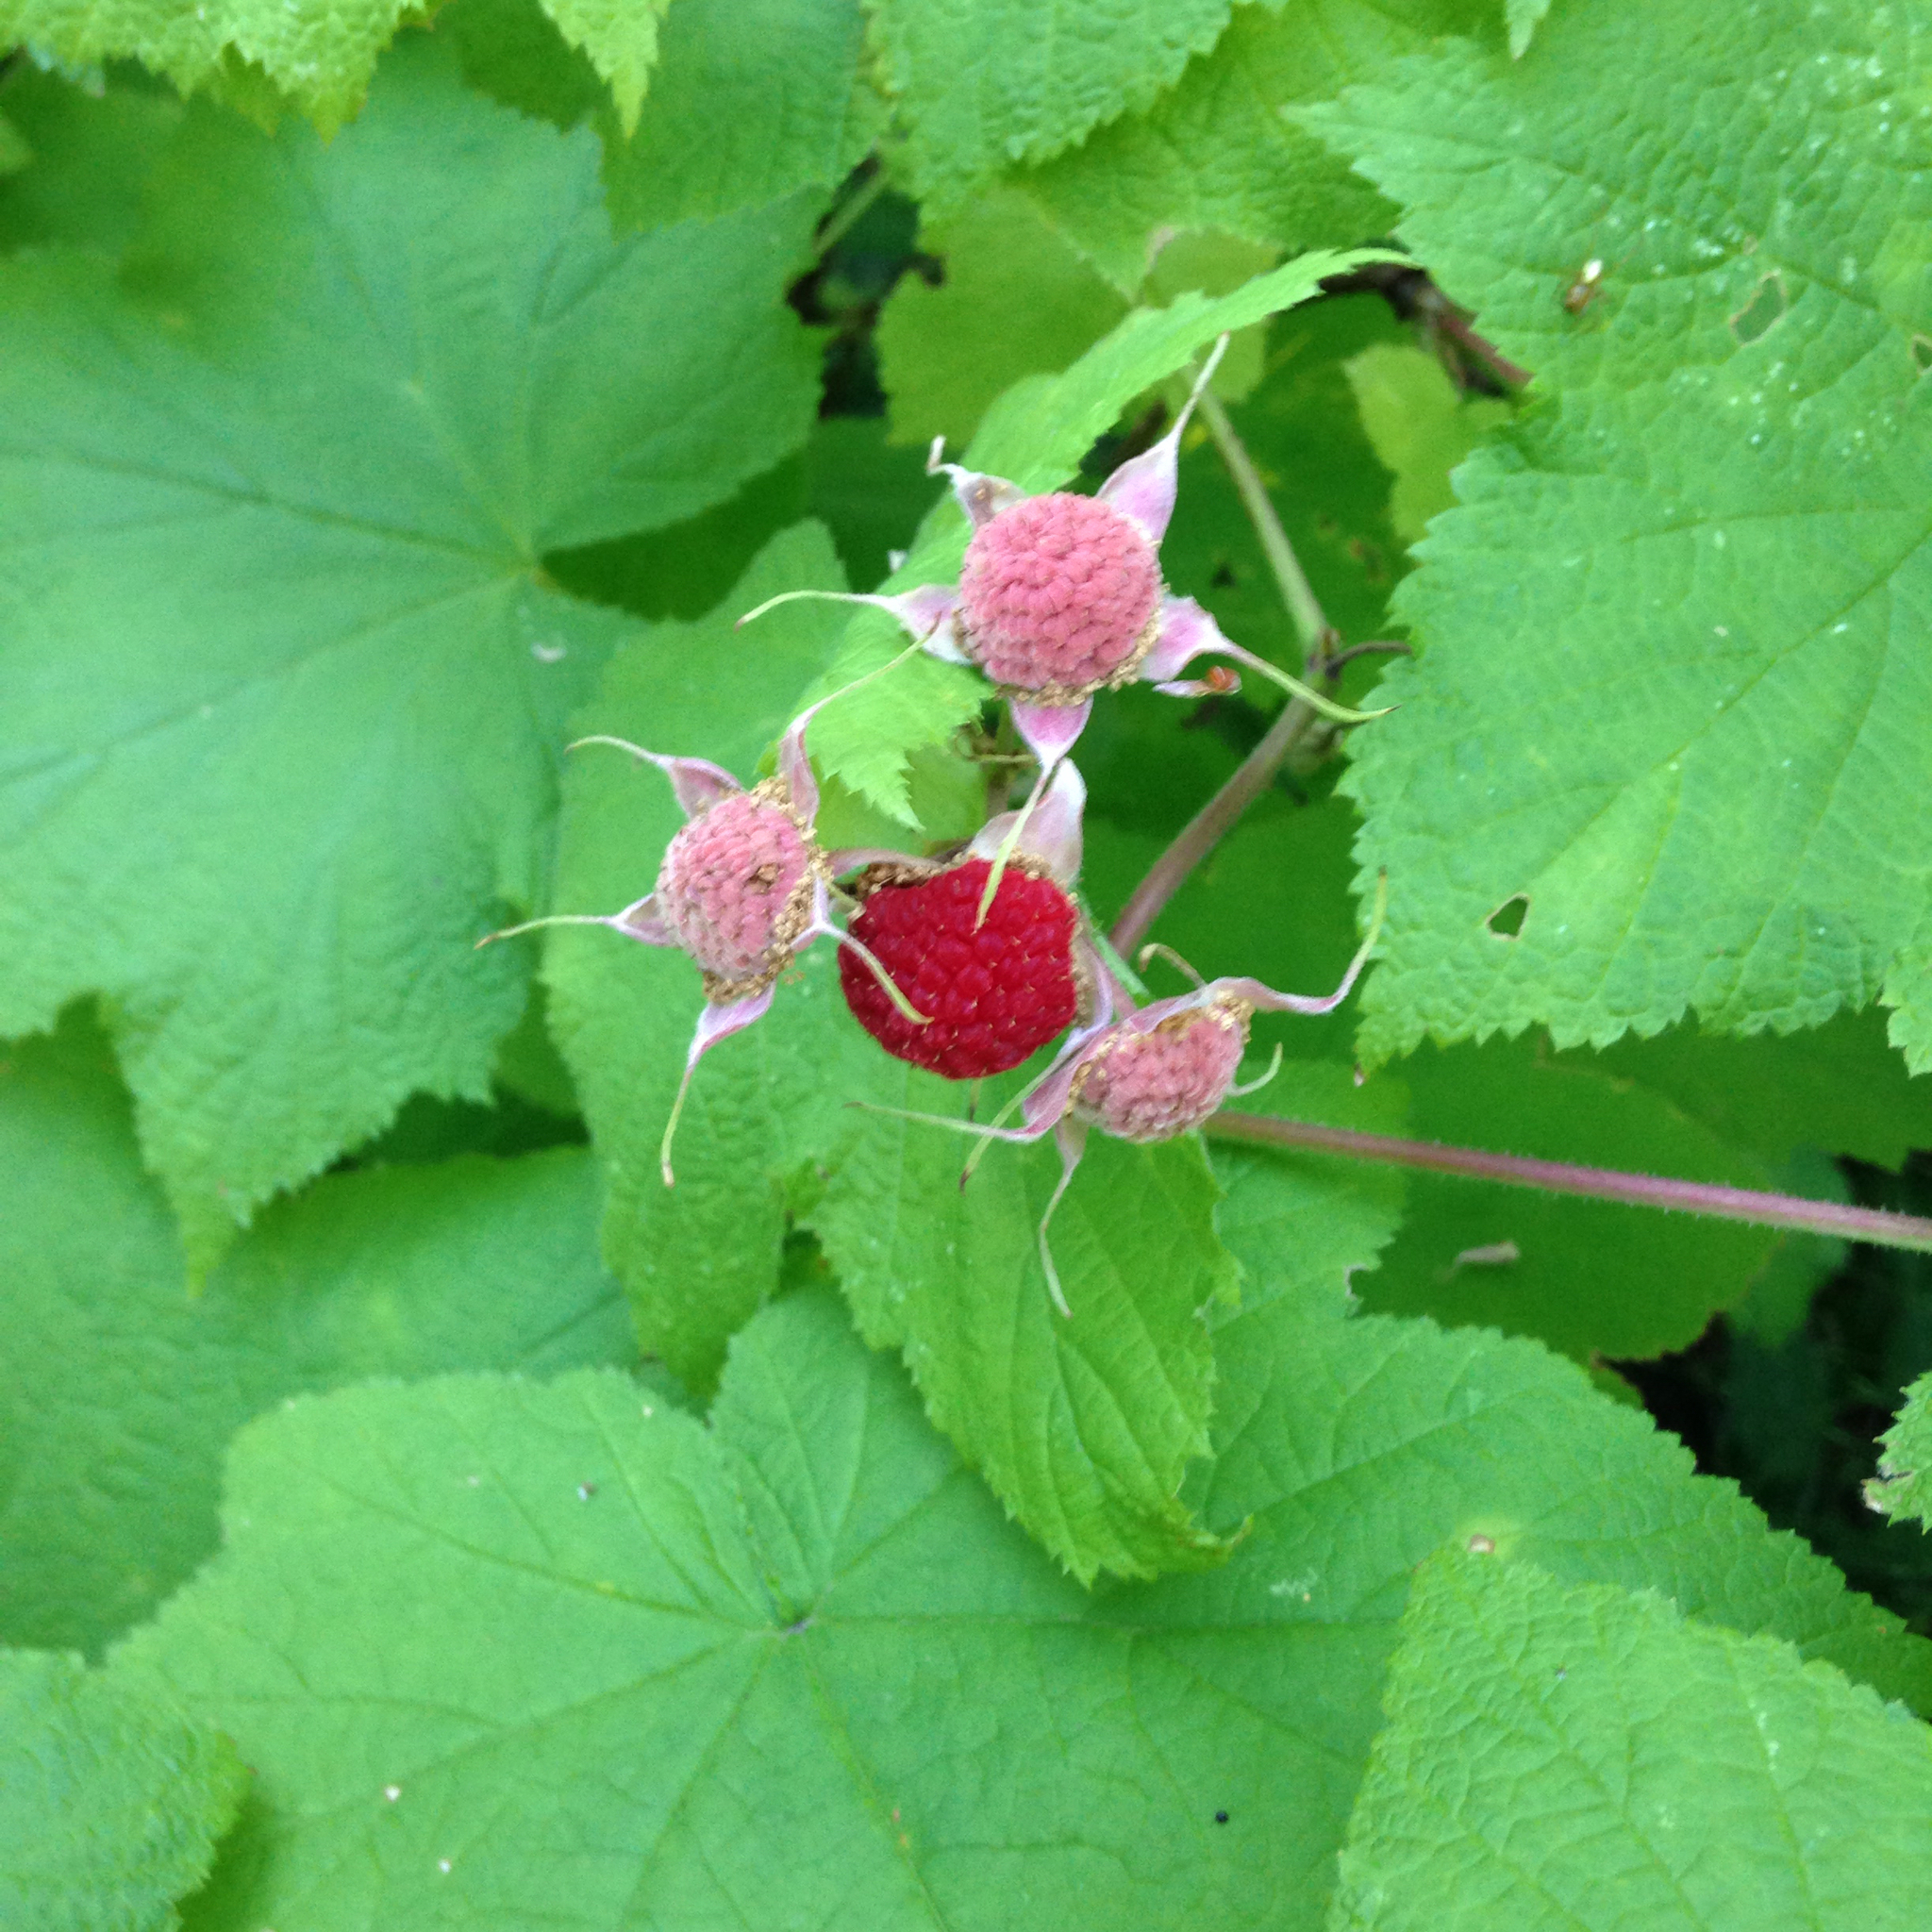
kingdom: Plantae
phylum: Tracheophyta
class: Magnoliopsida
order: Rosales
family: Rosaceae
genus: Rubus
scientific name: Rubus parviflorus
